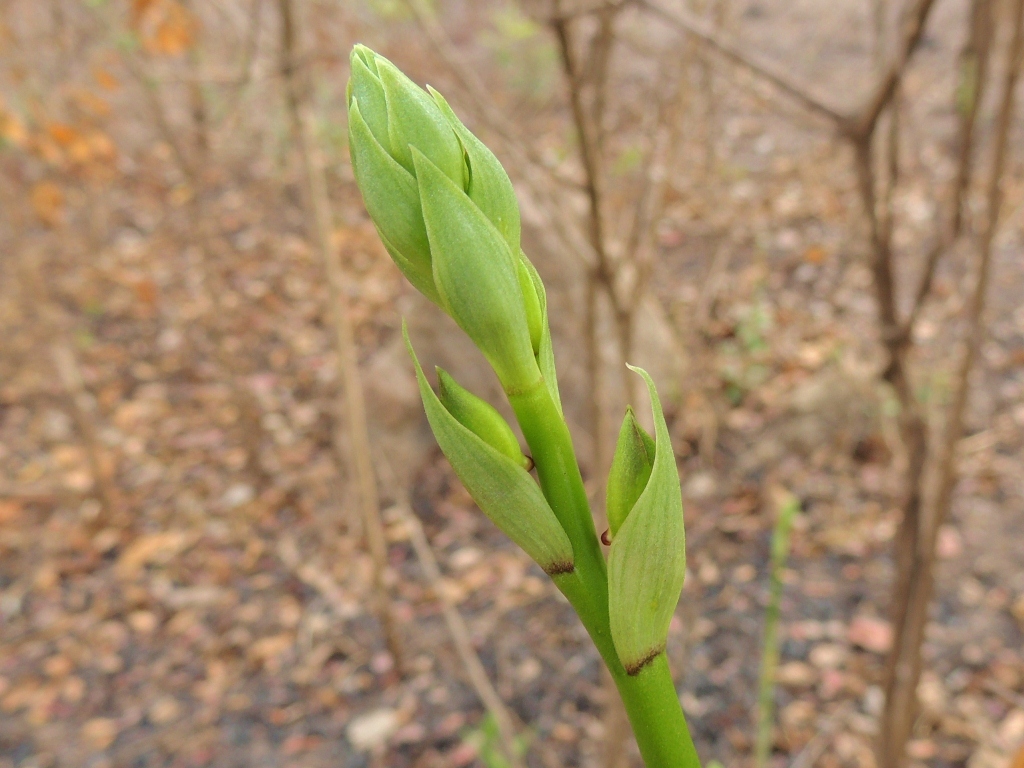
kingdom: Plantae
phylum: Tracheophyta
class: Liliopsida
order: Asparagales
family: Orchidaceae
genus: Eulophia
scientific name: Eulophia streptopetala
